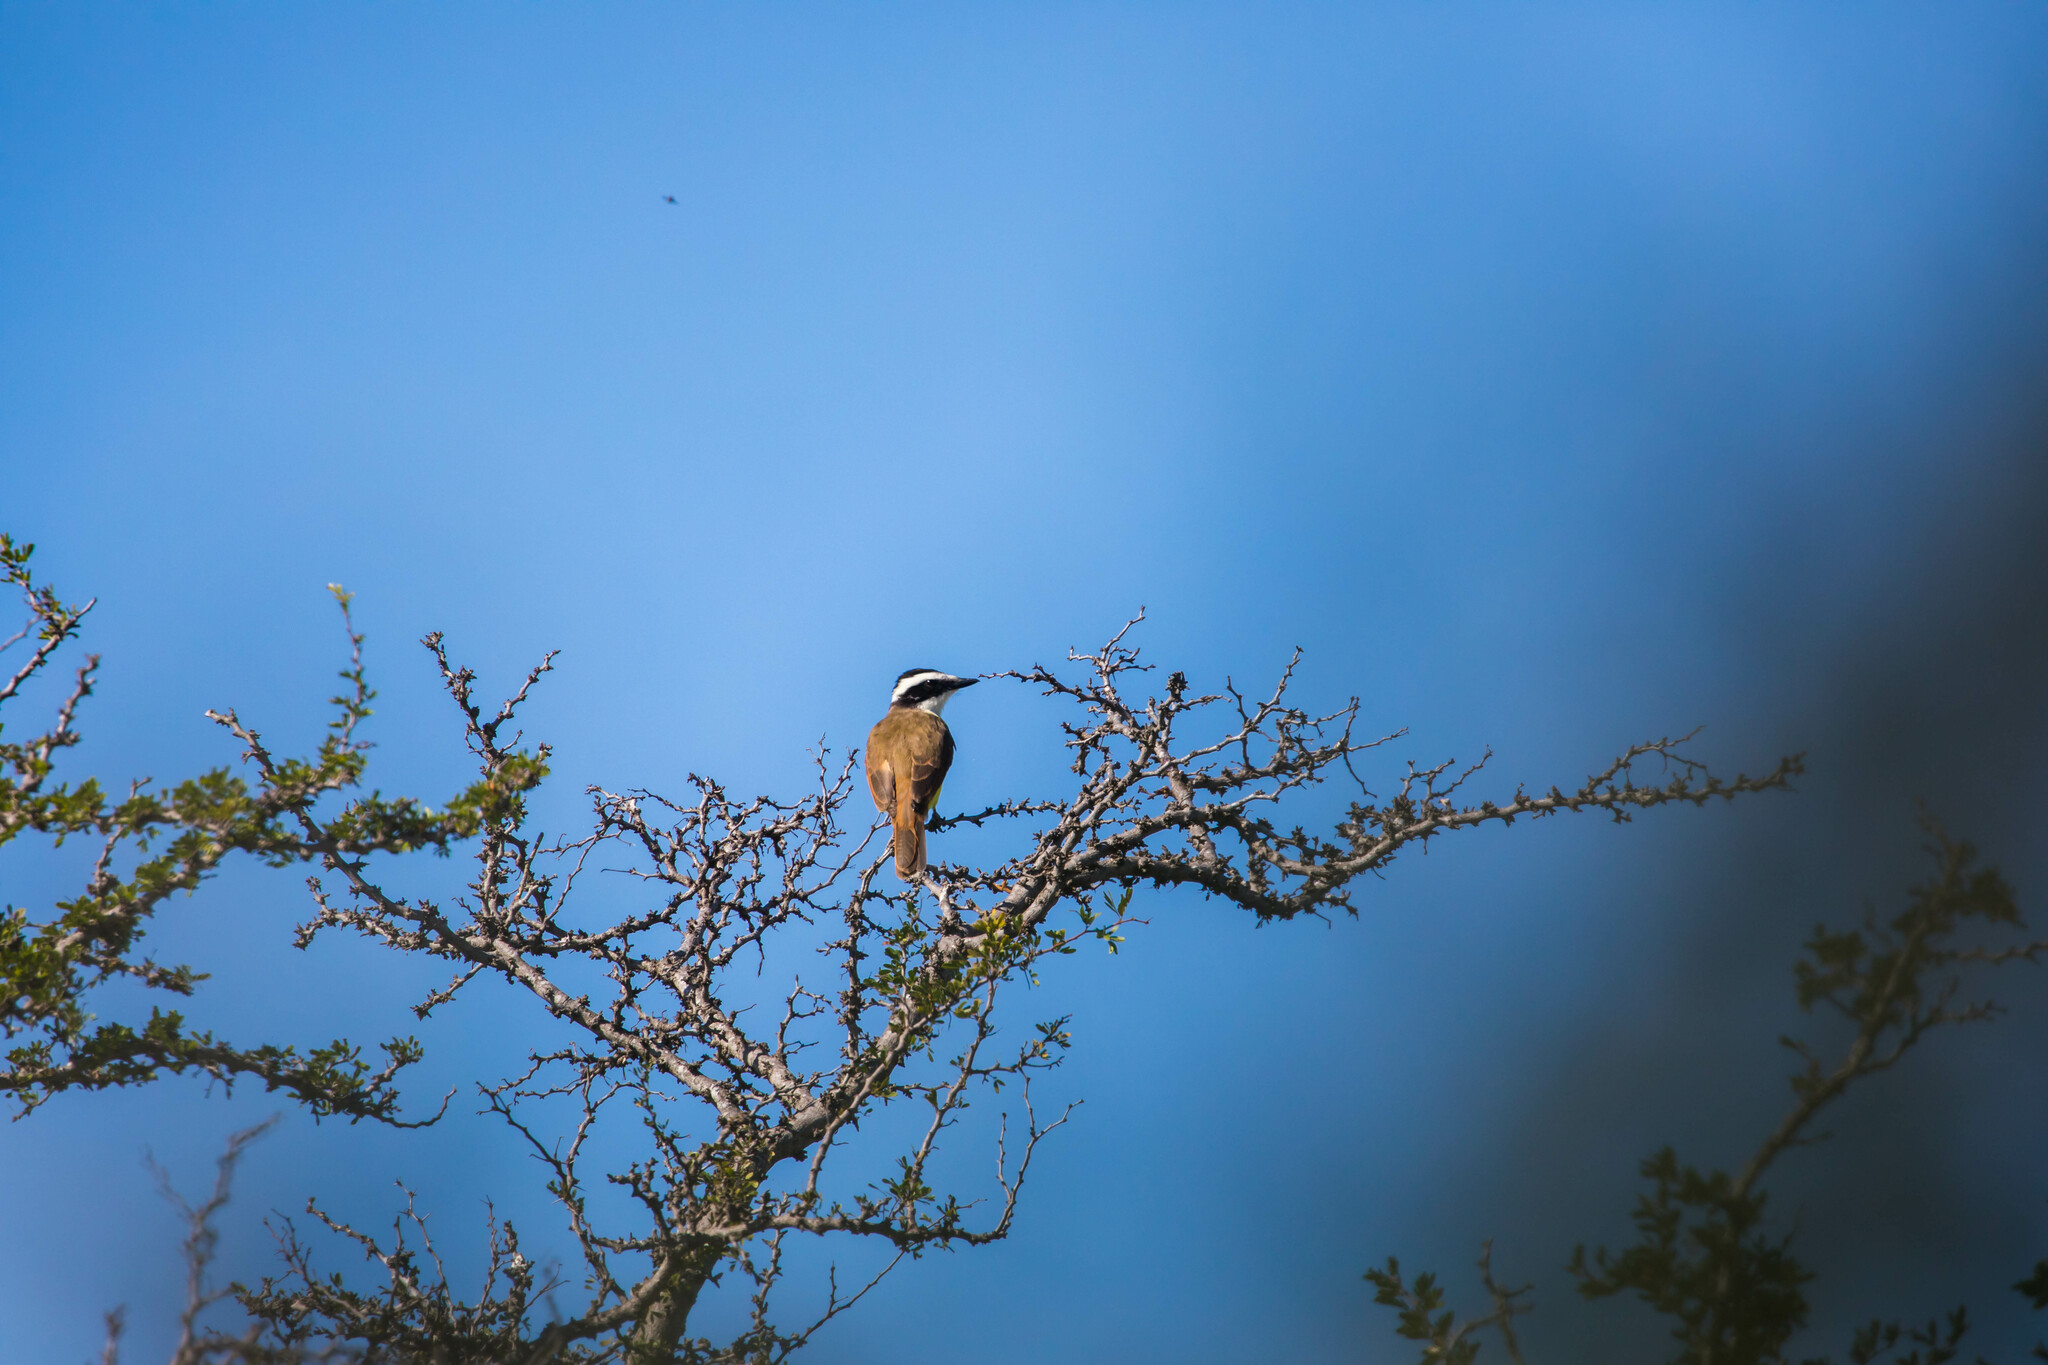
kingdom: Animalia
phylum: Chordata
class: Aves
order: Passeriformes
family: Tyrannidae
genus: Pitangus
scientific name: Pitangus sulphuratus
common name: Great kiskadee
